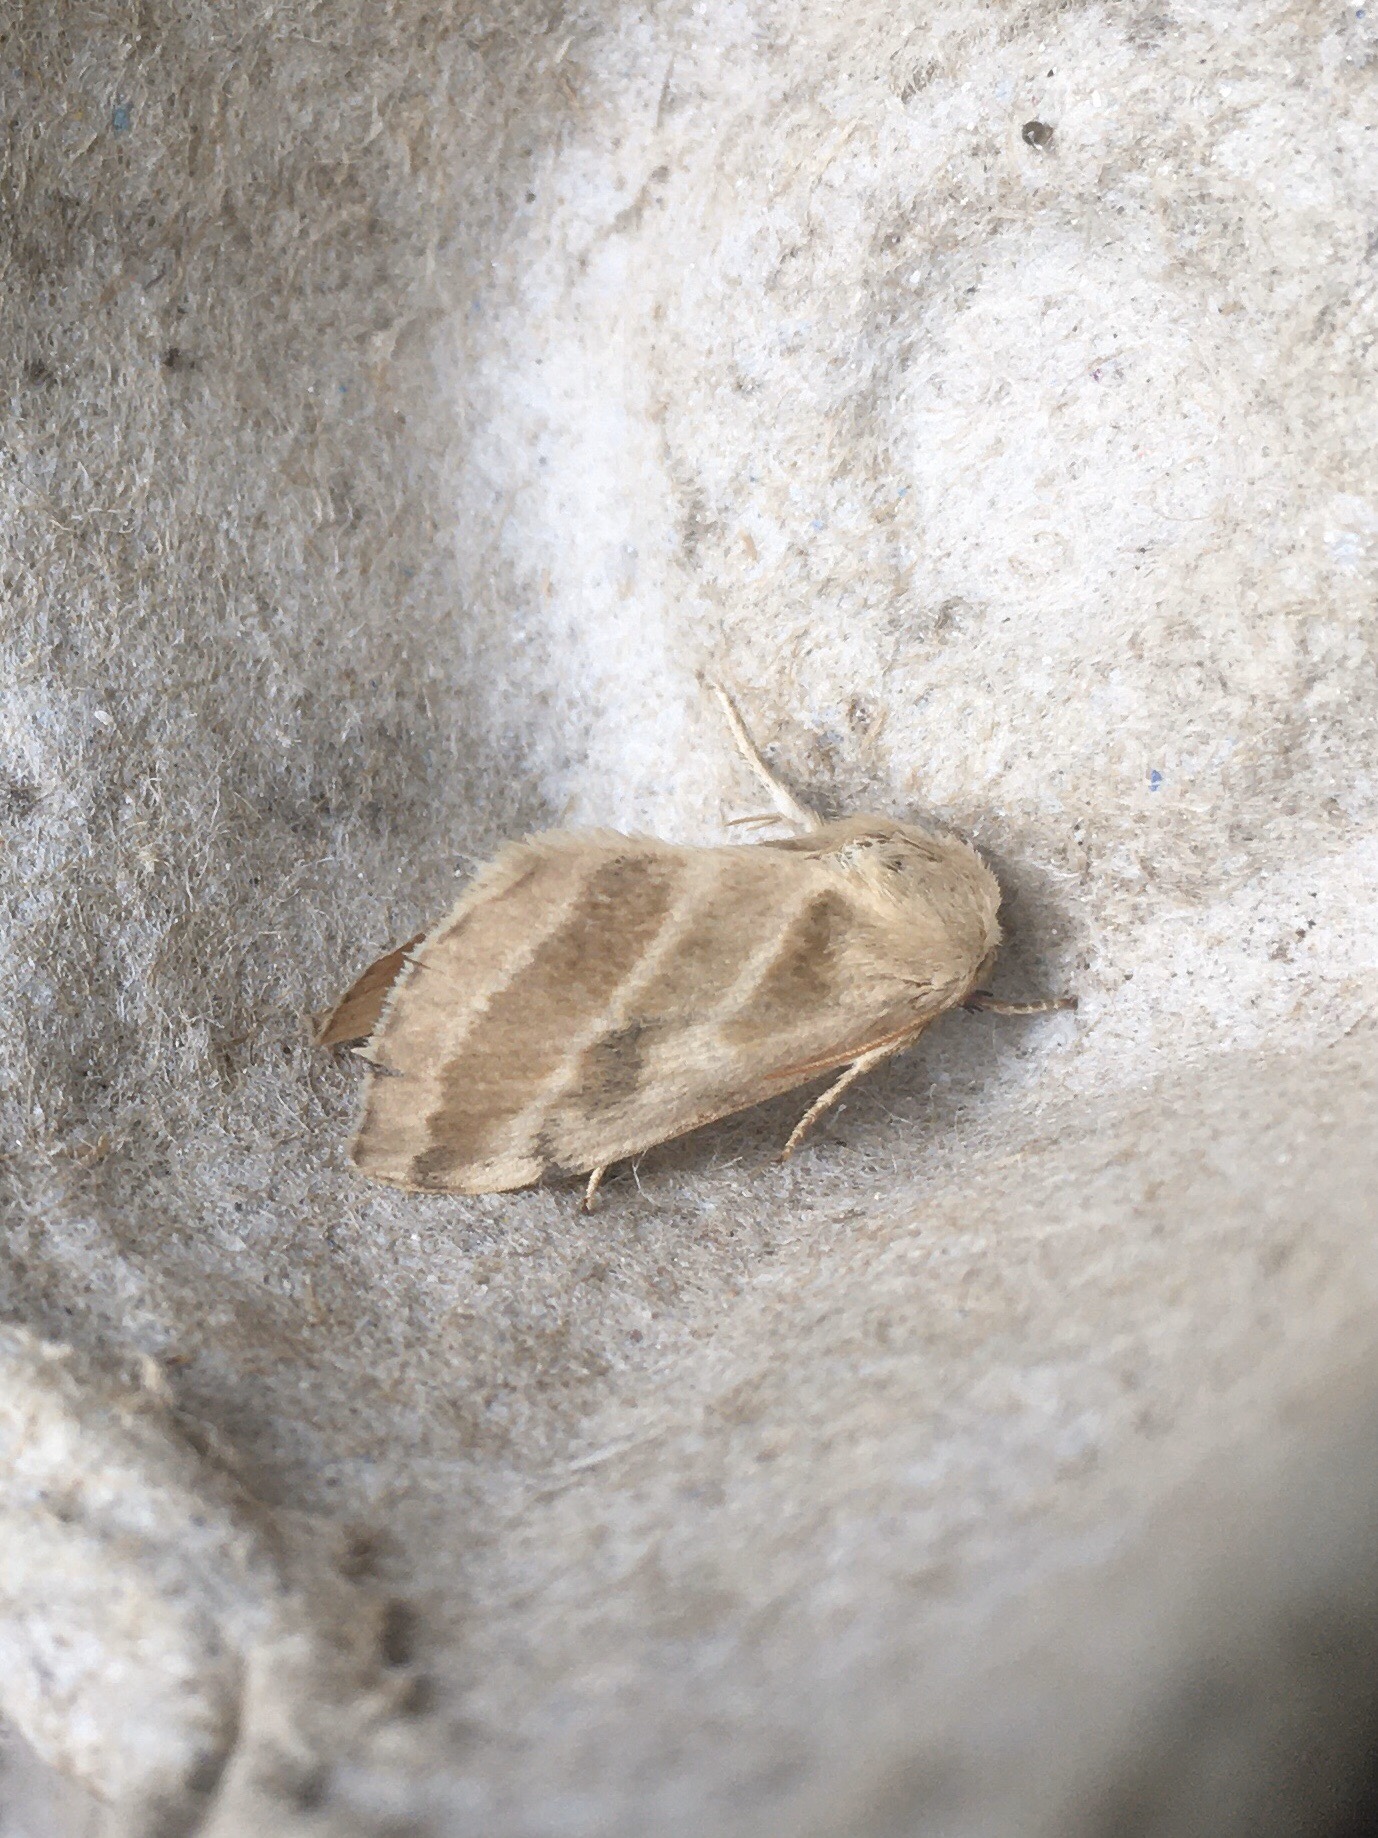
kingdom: Animalia
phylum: Arthropoda
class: Insecta
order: Lepidoptera
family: Noctuidae
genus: Schinia
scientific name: Schinia trifascia
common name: Three-lined flower moth
